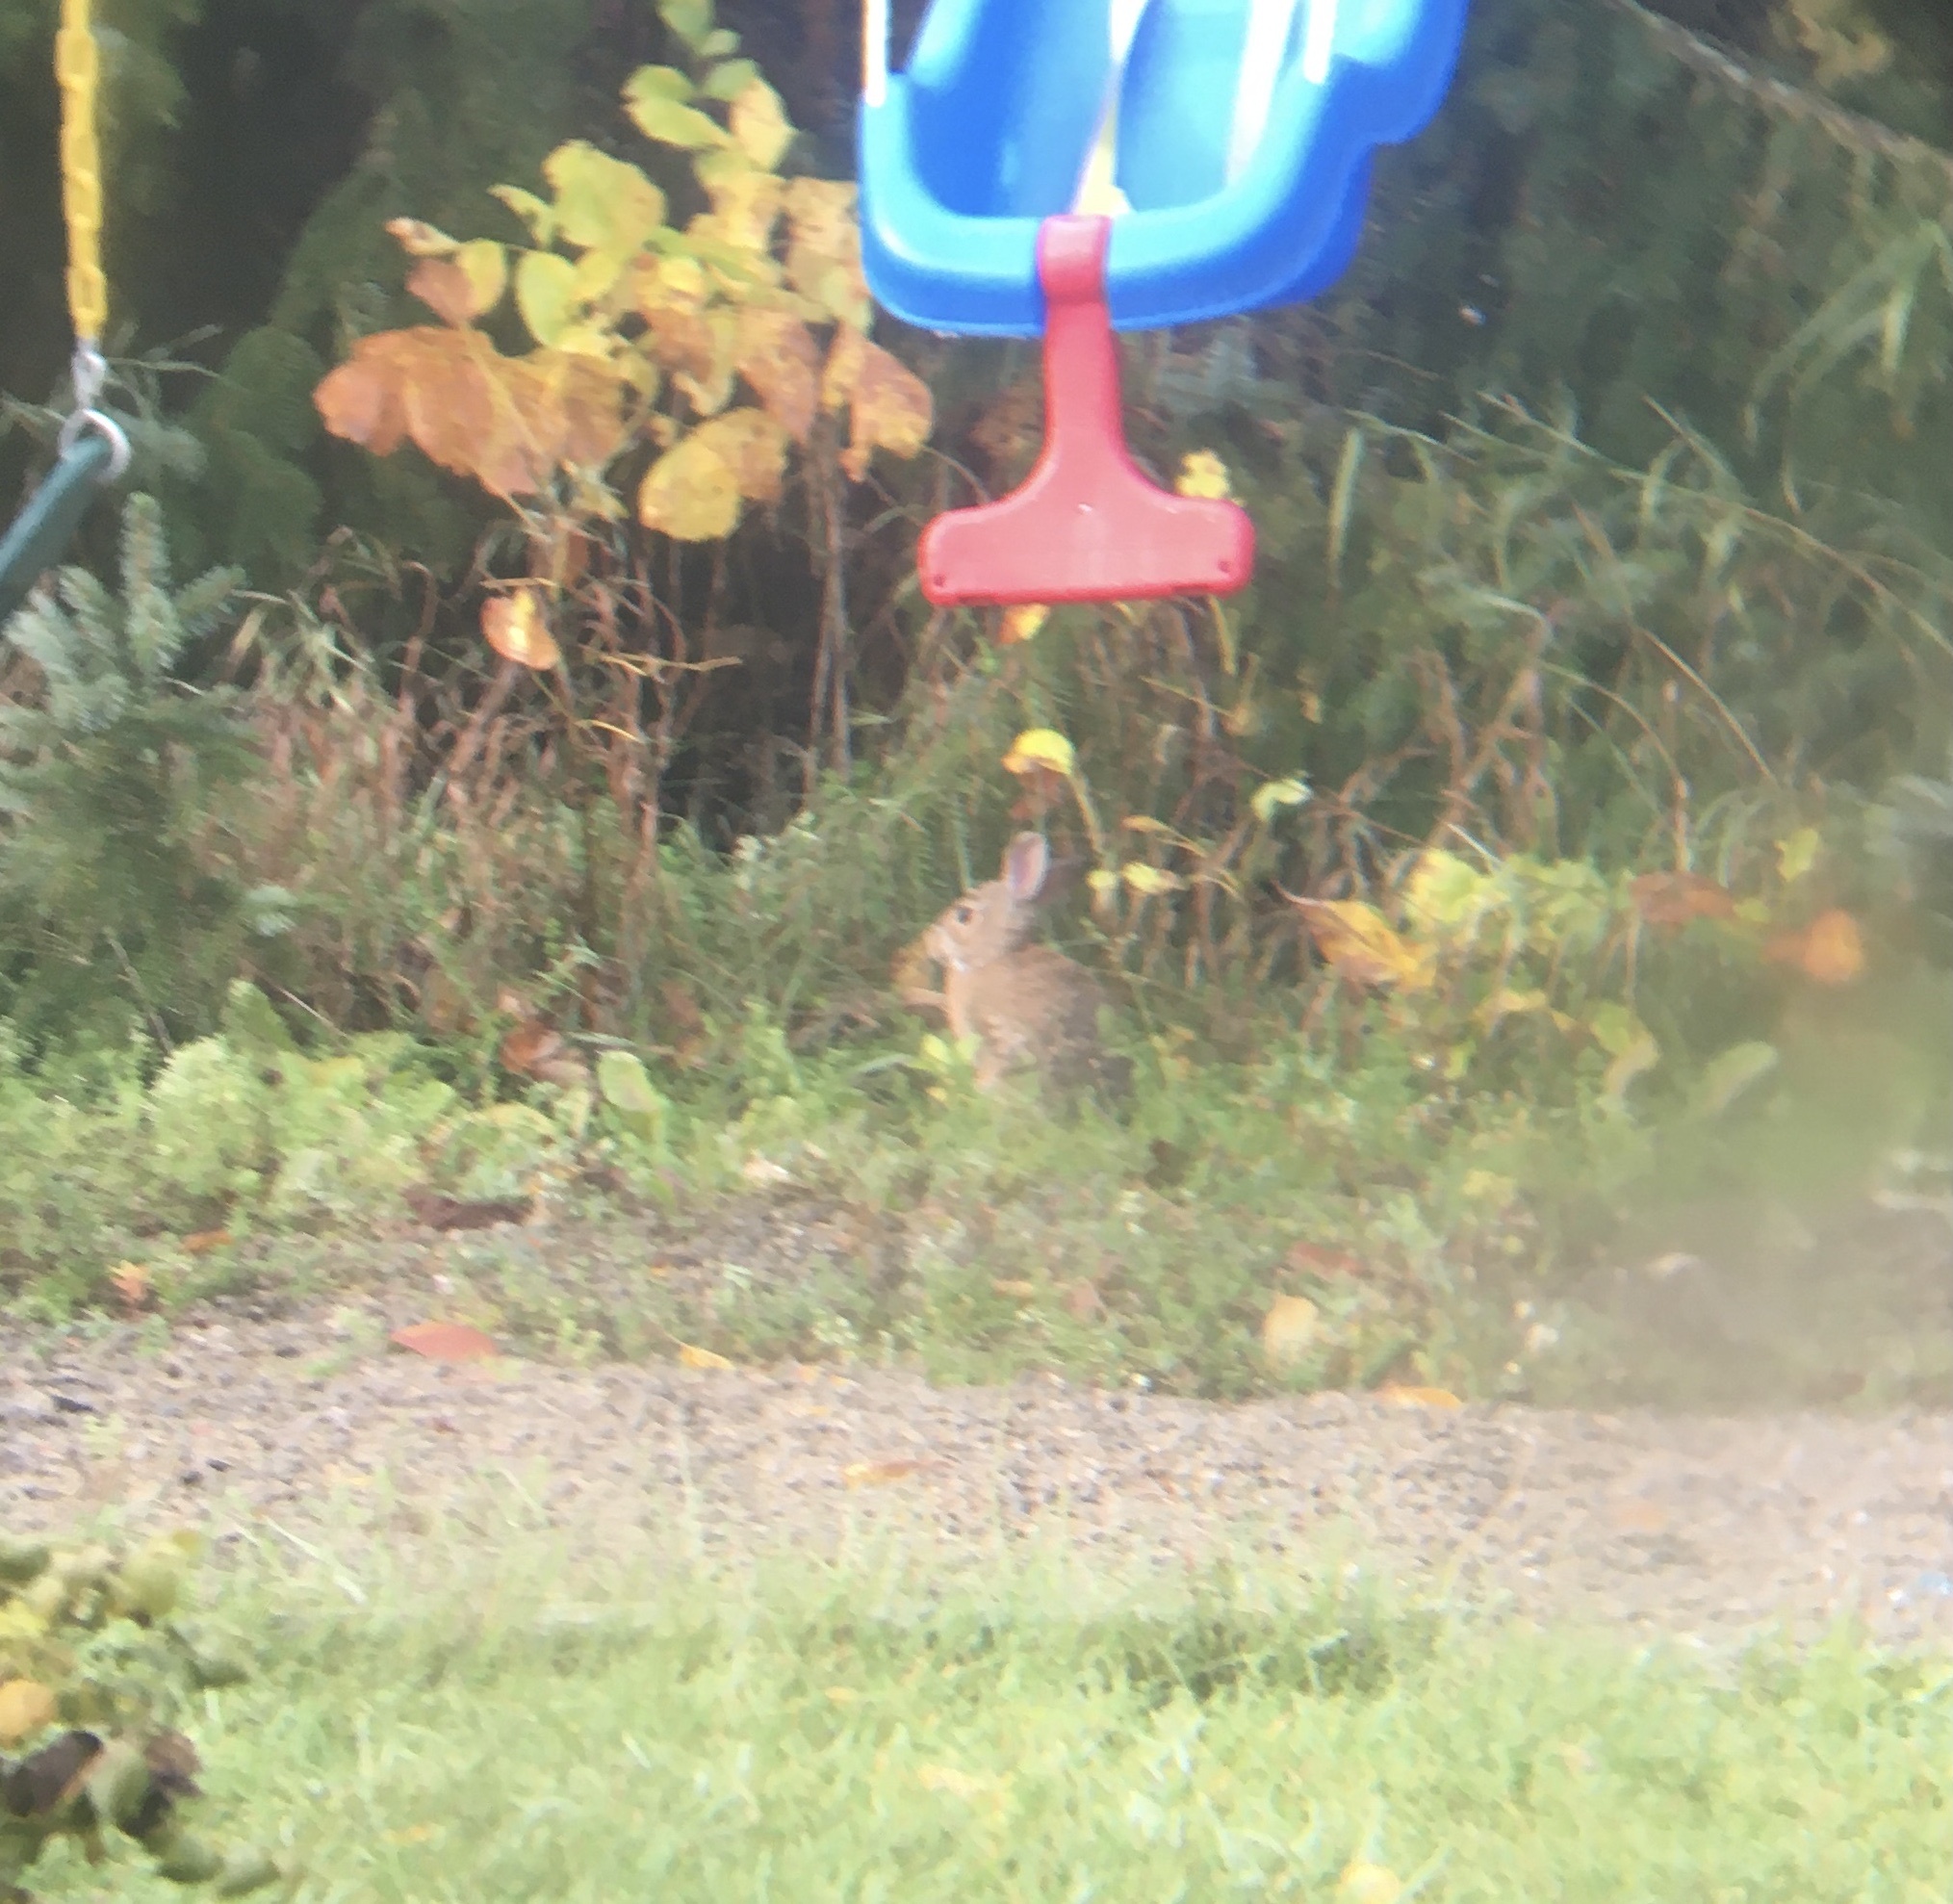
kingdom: Animalia
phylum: Chordata
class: Mammalia
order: Lagomorpha
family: Leporidae
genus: Sylvilagus
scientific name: Sylvilagus floridanus
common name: Eastern cottontail
